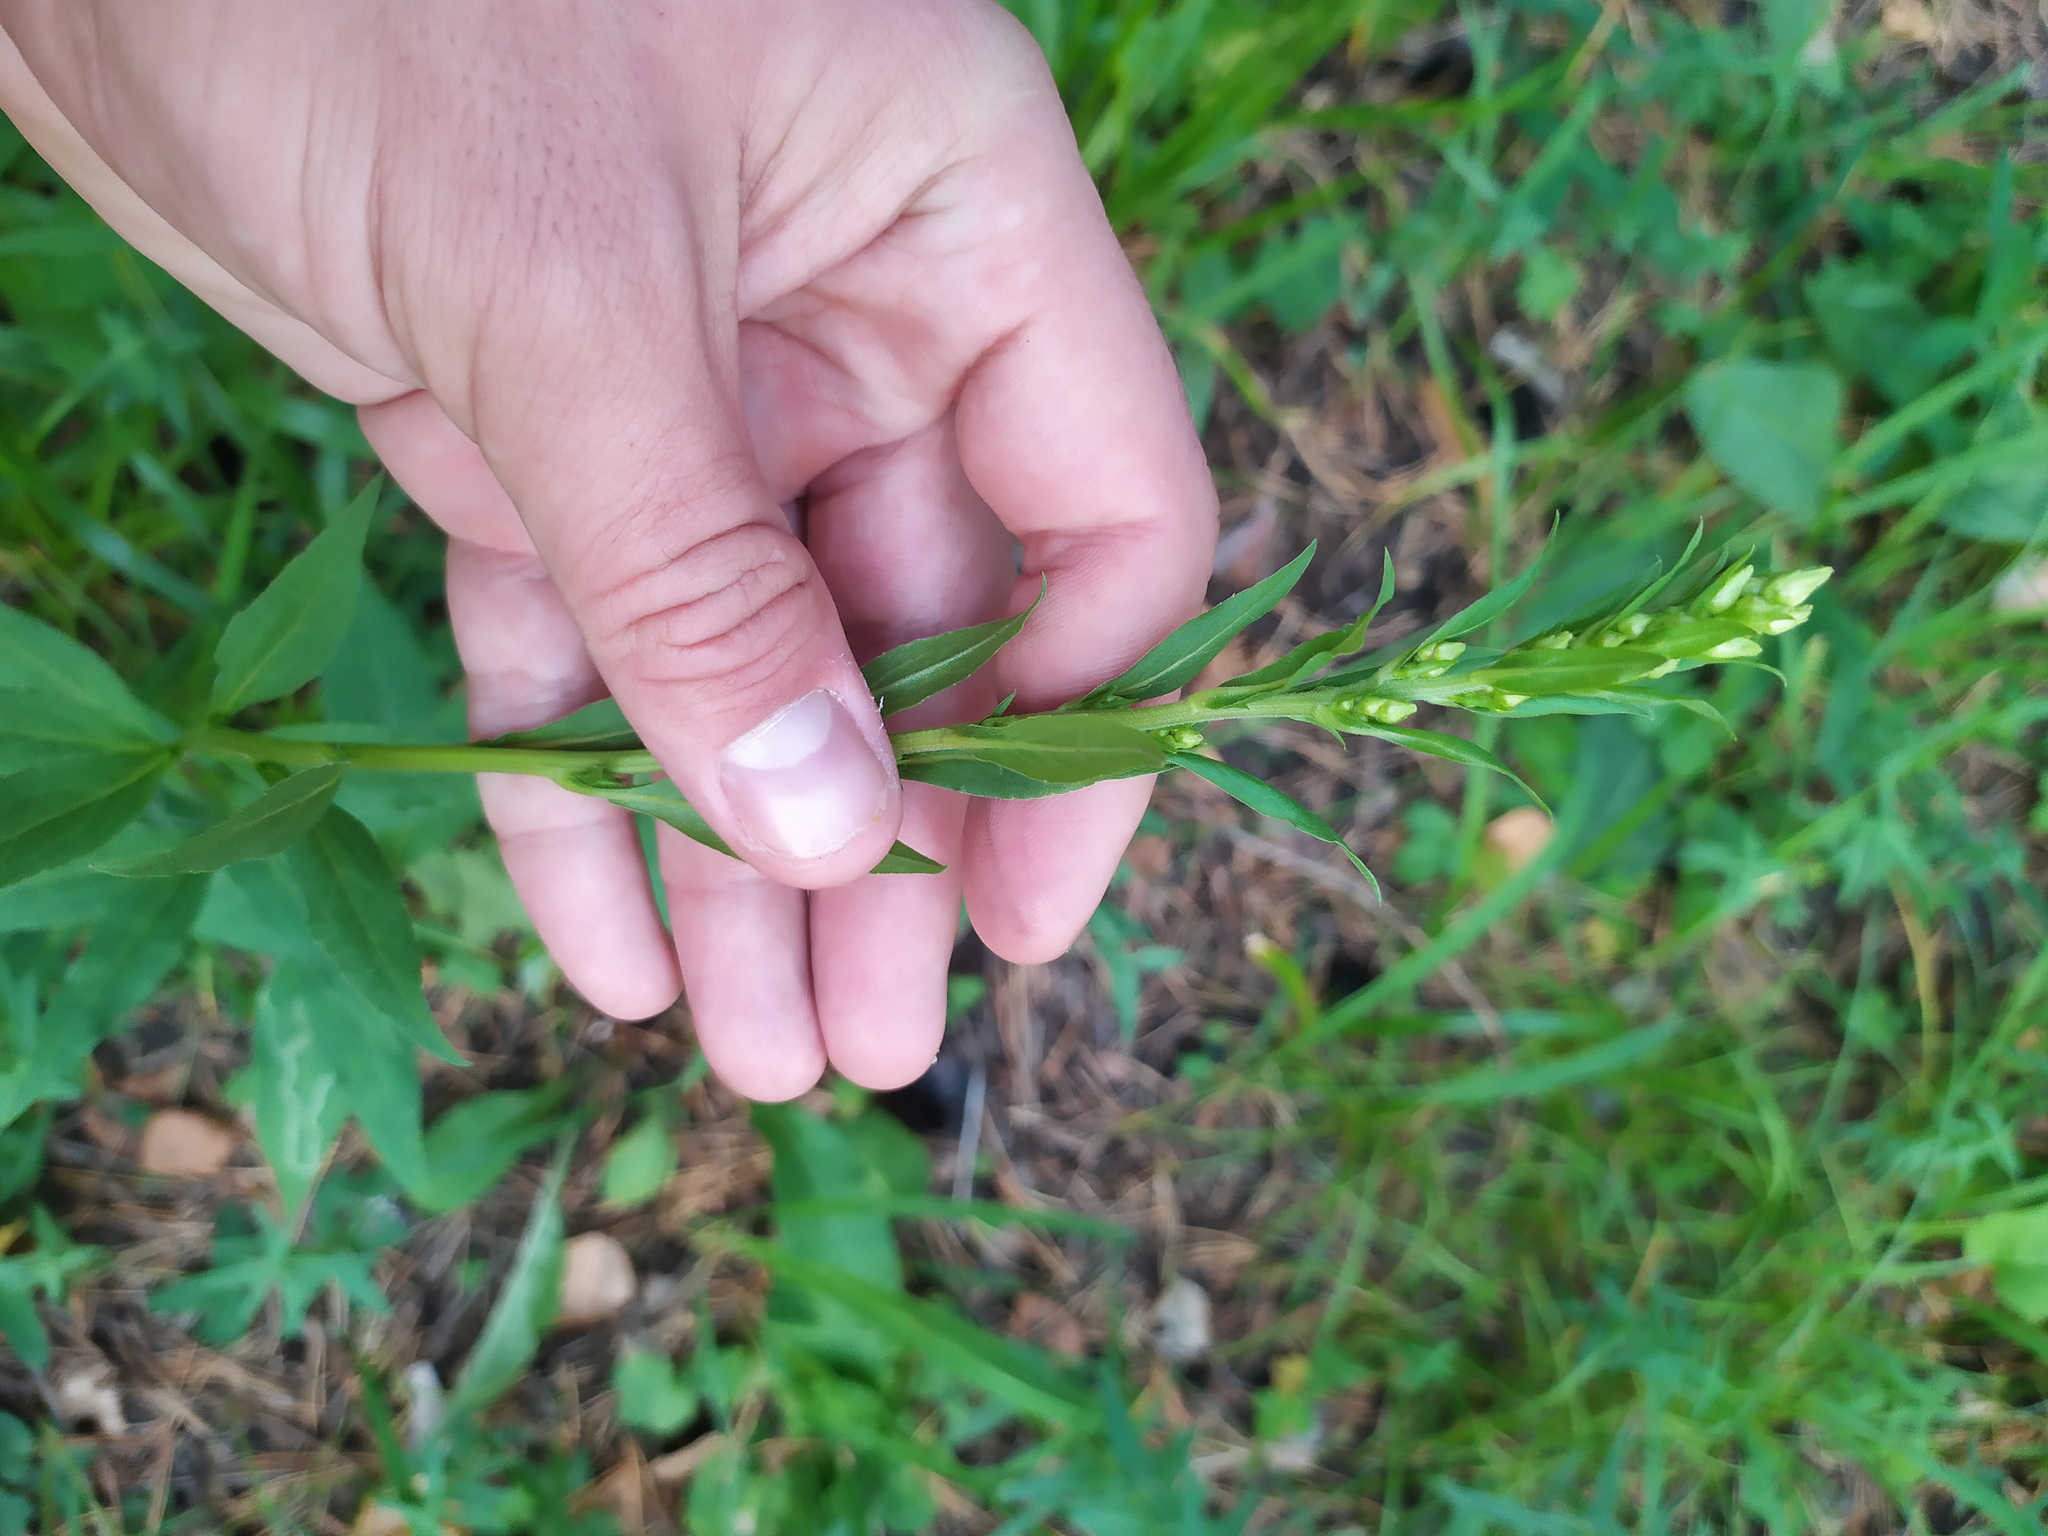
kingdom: Plantae
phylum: Tracheophyta
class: Magnoliopsida
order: Asterales
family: Asteraceae
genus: Solidago
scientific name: Solidago virgaurea
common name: Goldenrod
